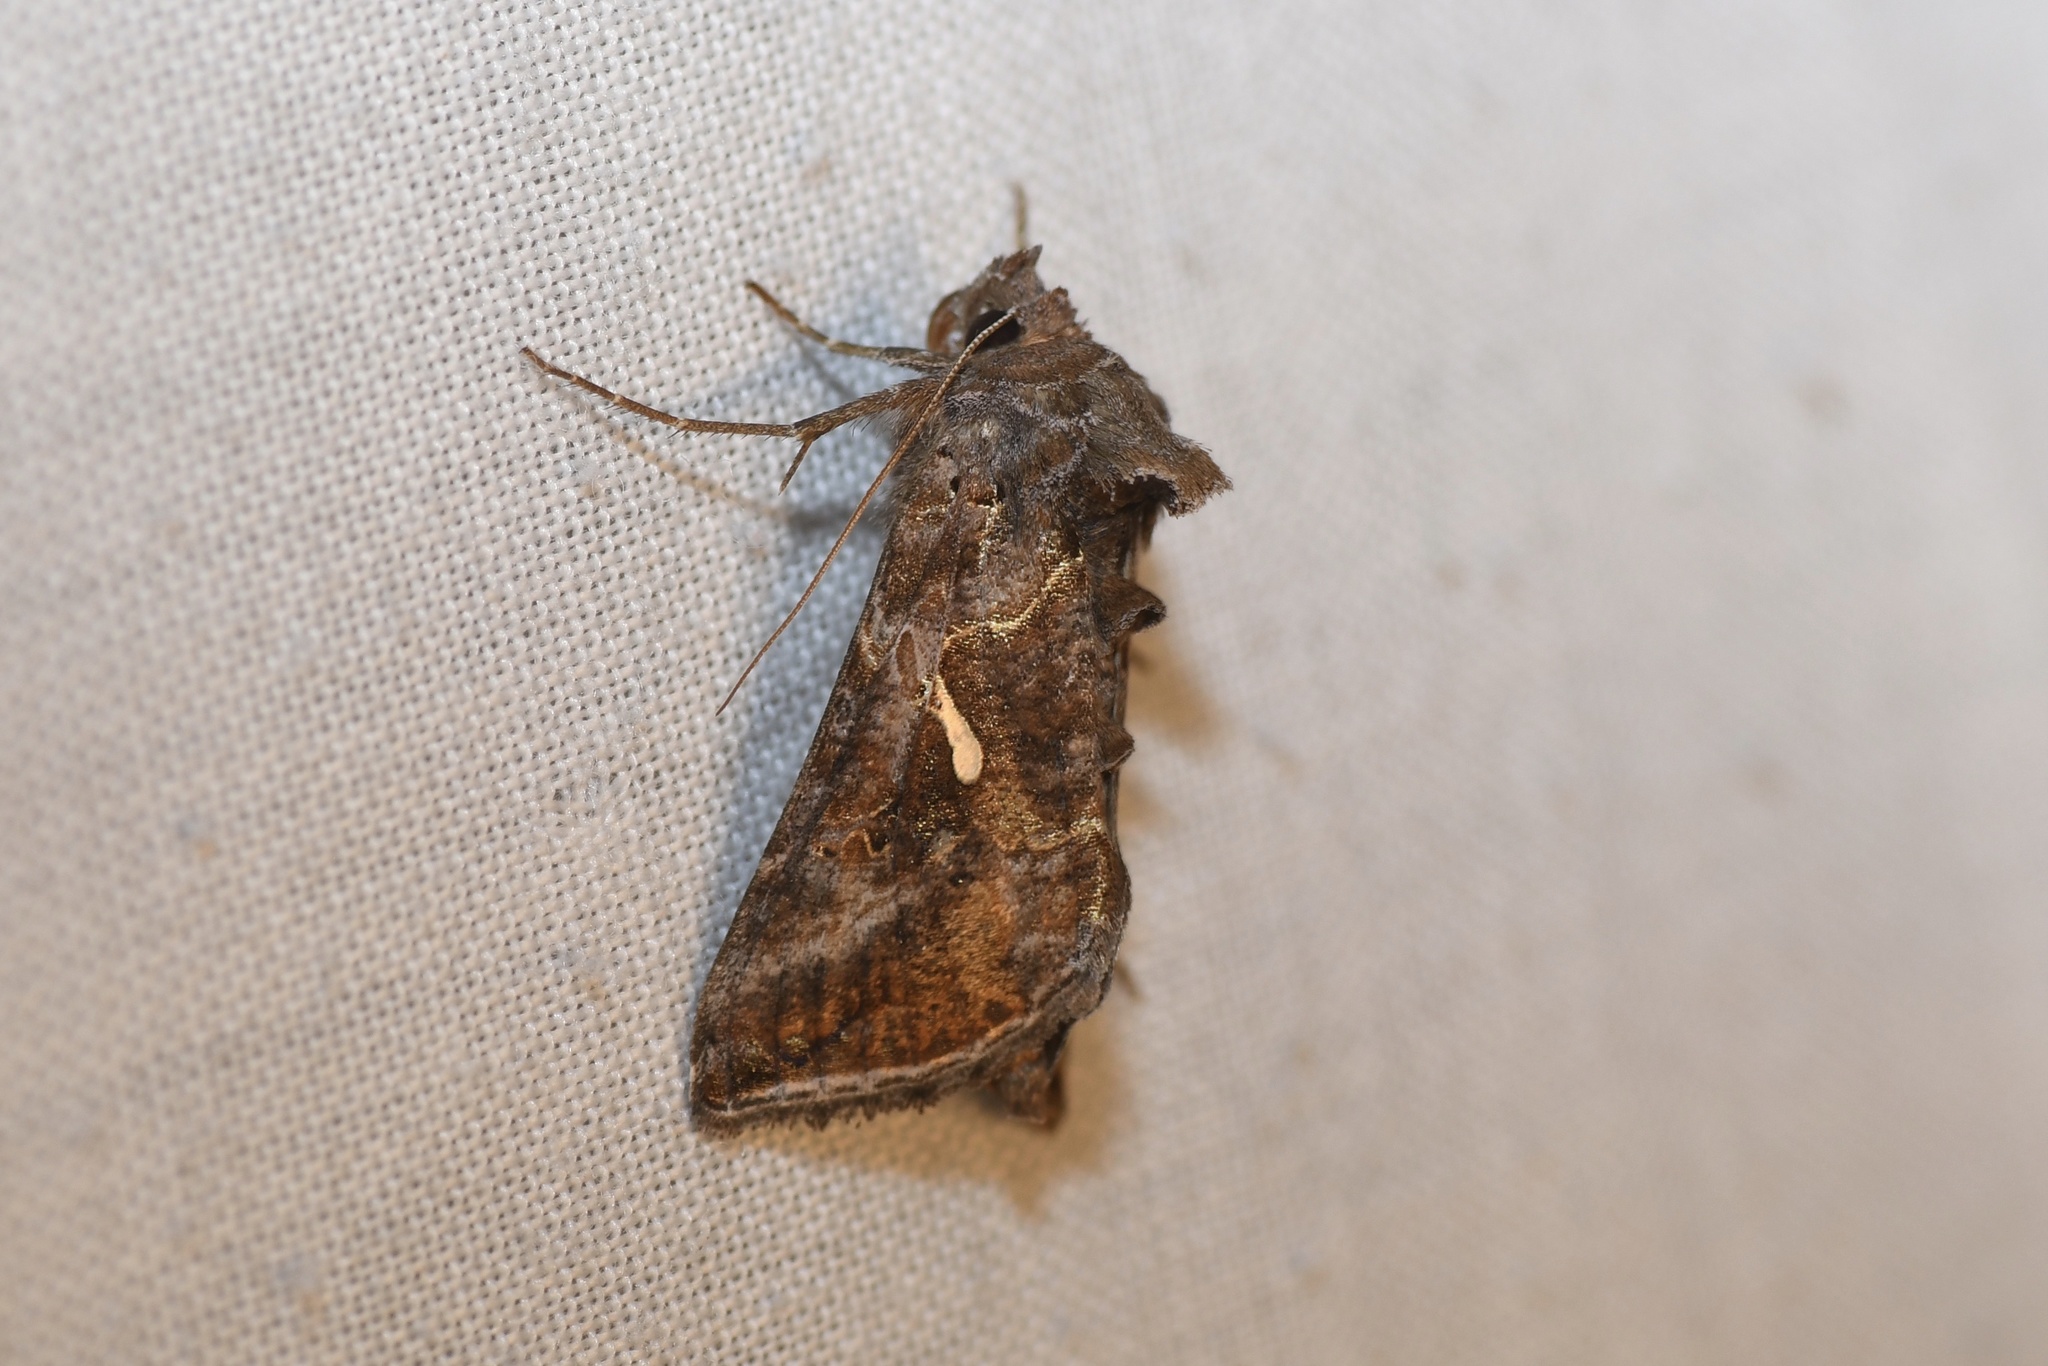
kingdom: Animalia
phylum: Arthropoda
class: Insecta
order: Lepidoptera
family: Noctuidae
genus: Autographa
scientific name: Autographa precationis
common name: Common looper moth
